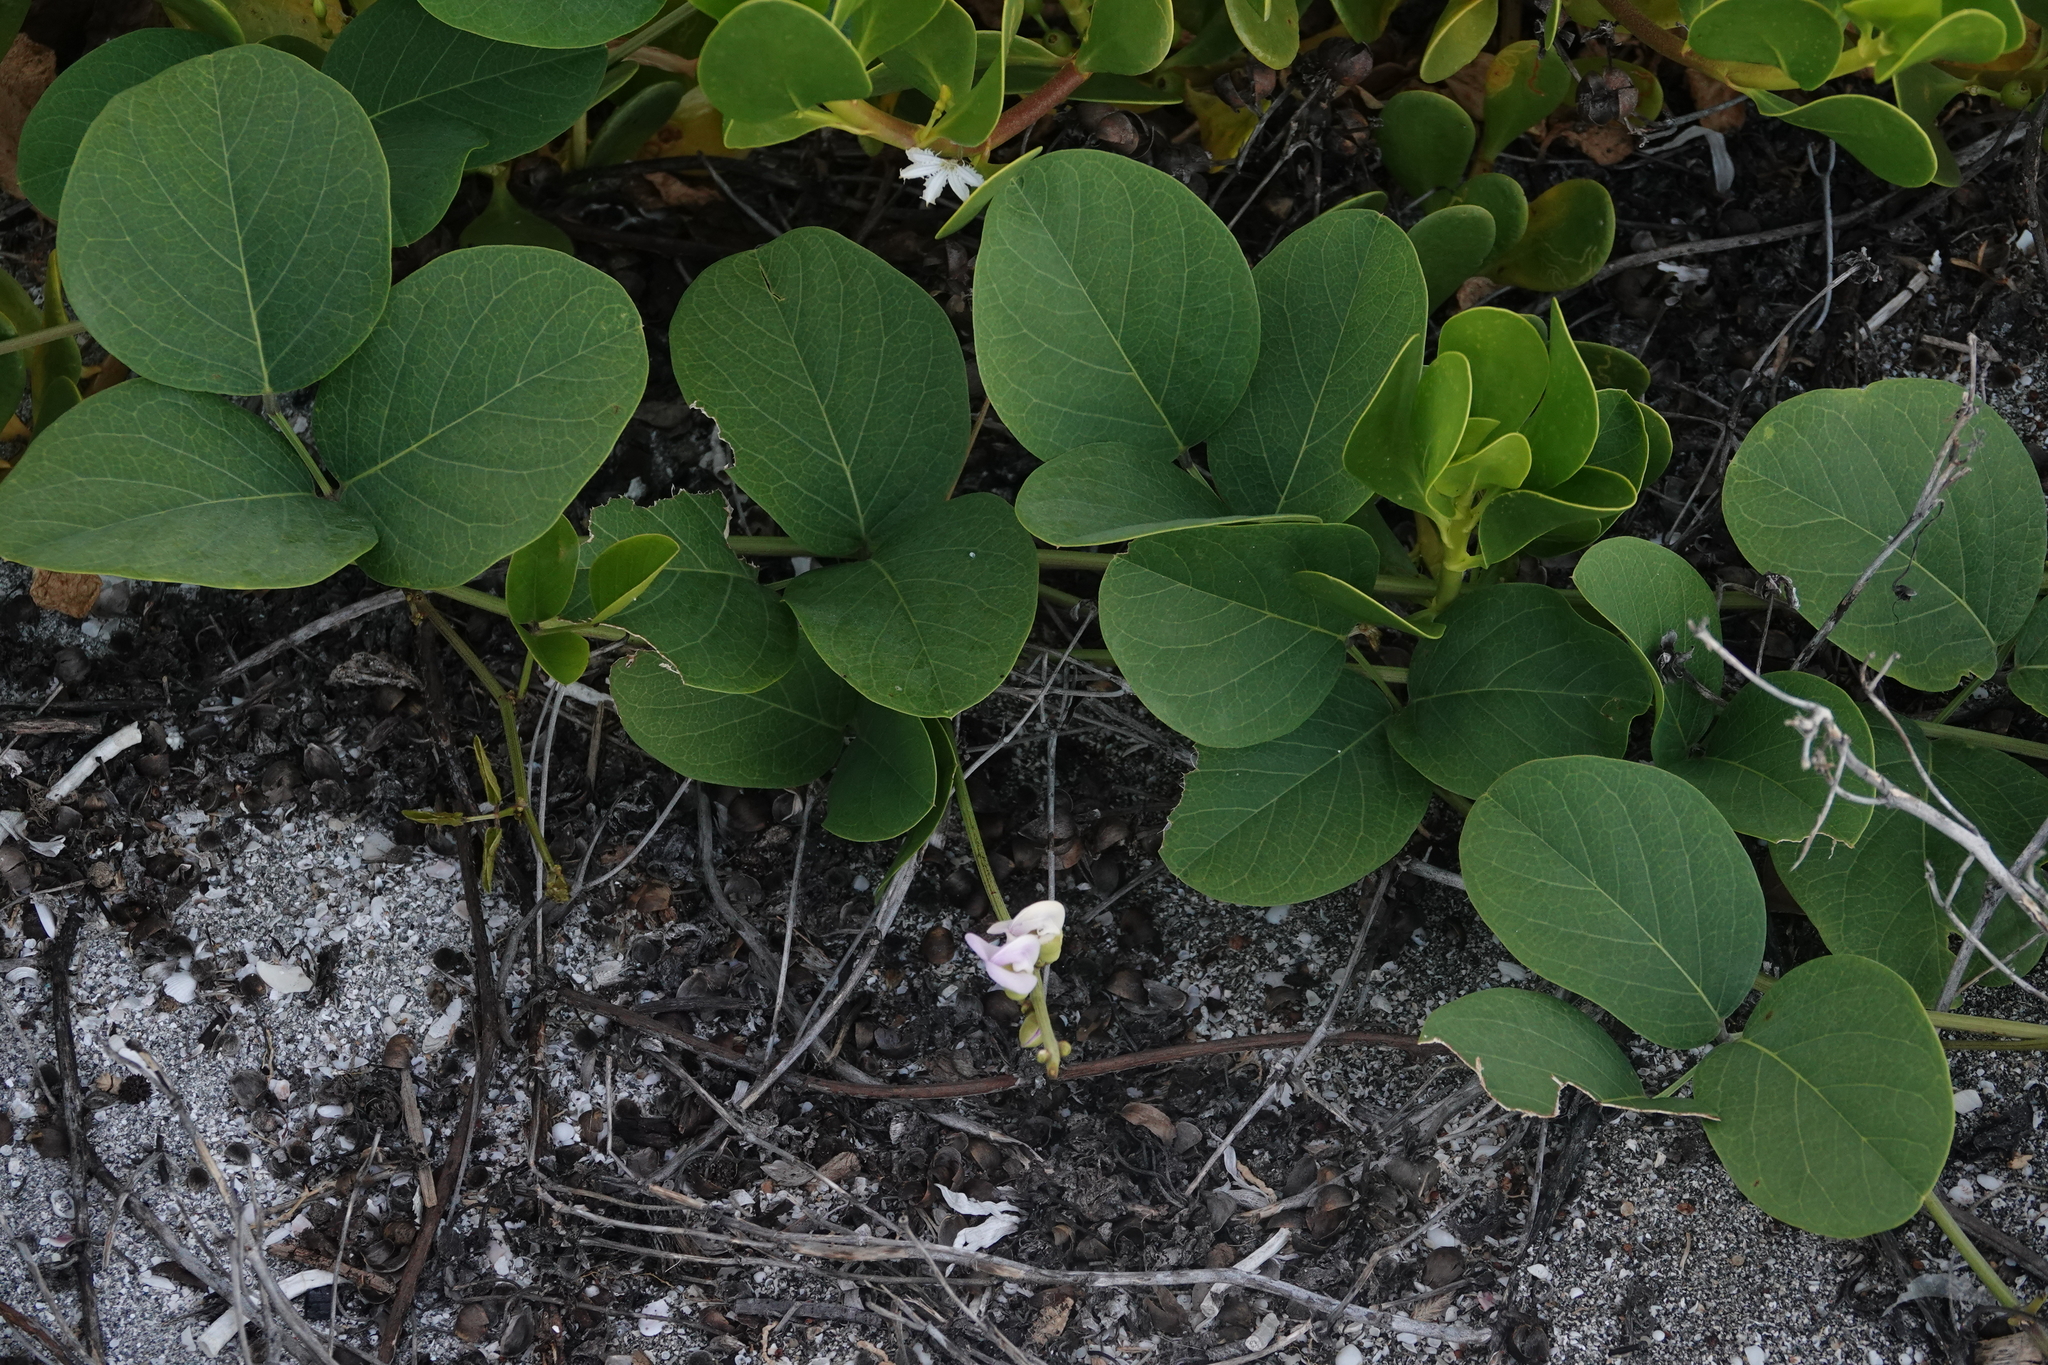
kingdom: Plantae
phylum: Tracheophyta
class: Magnoliopsida
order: Fabales
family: Fabaceae
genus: Canavalia
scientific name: Canavalia rosea
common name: Beach-bean
